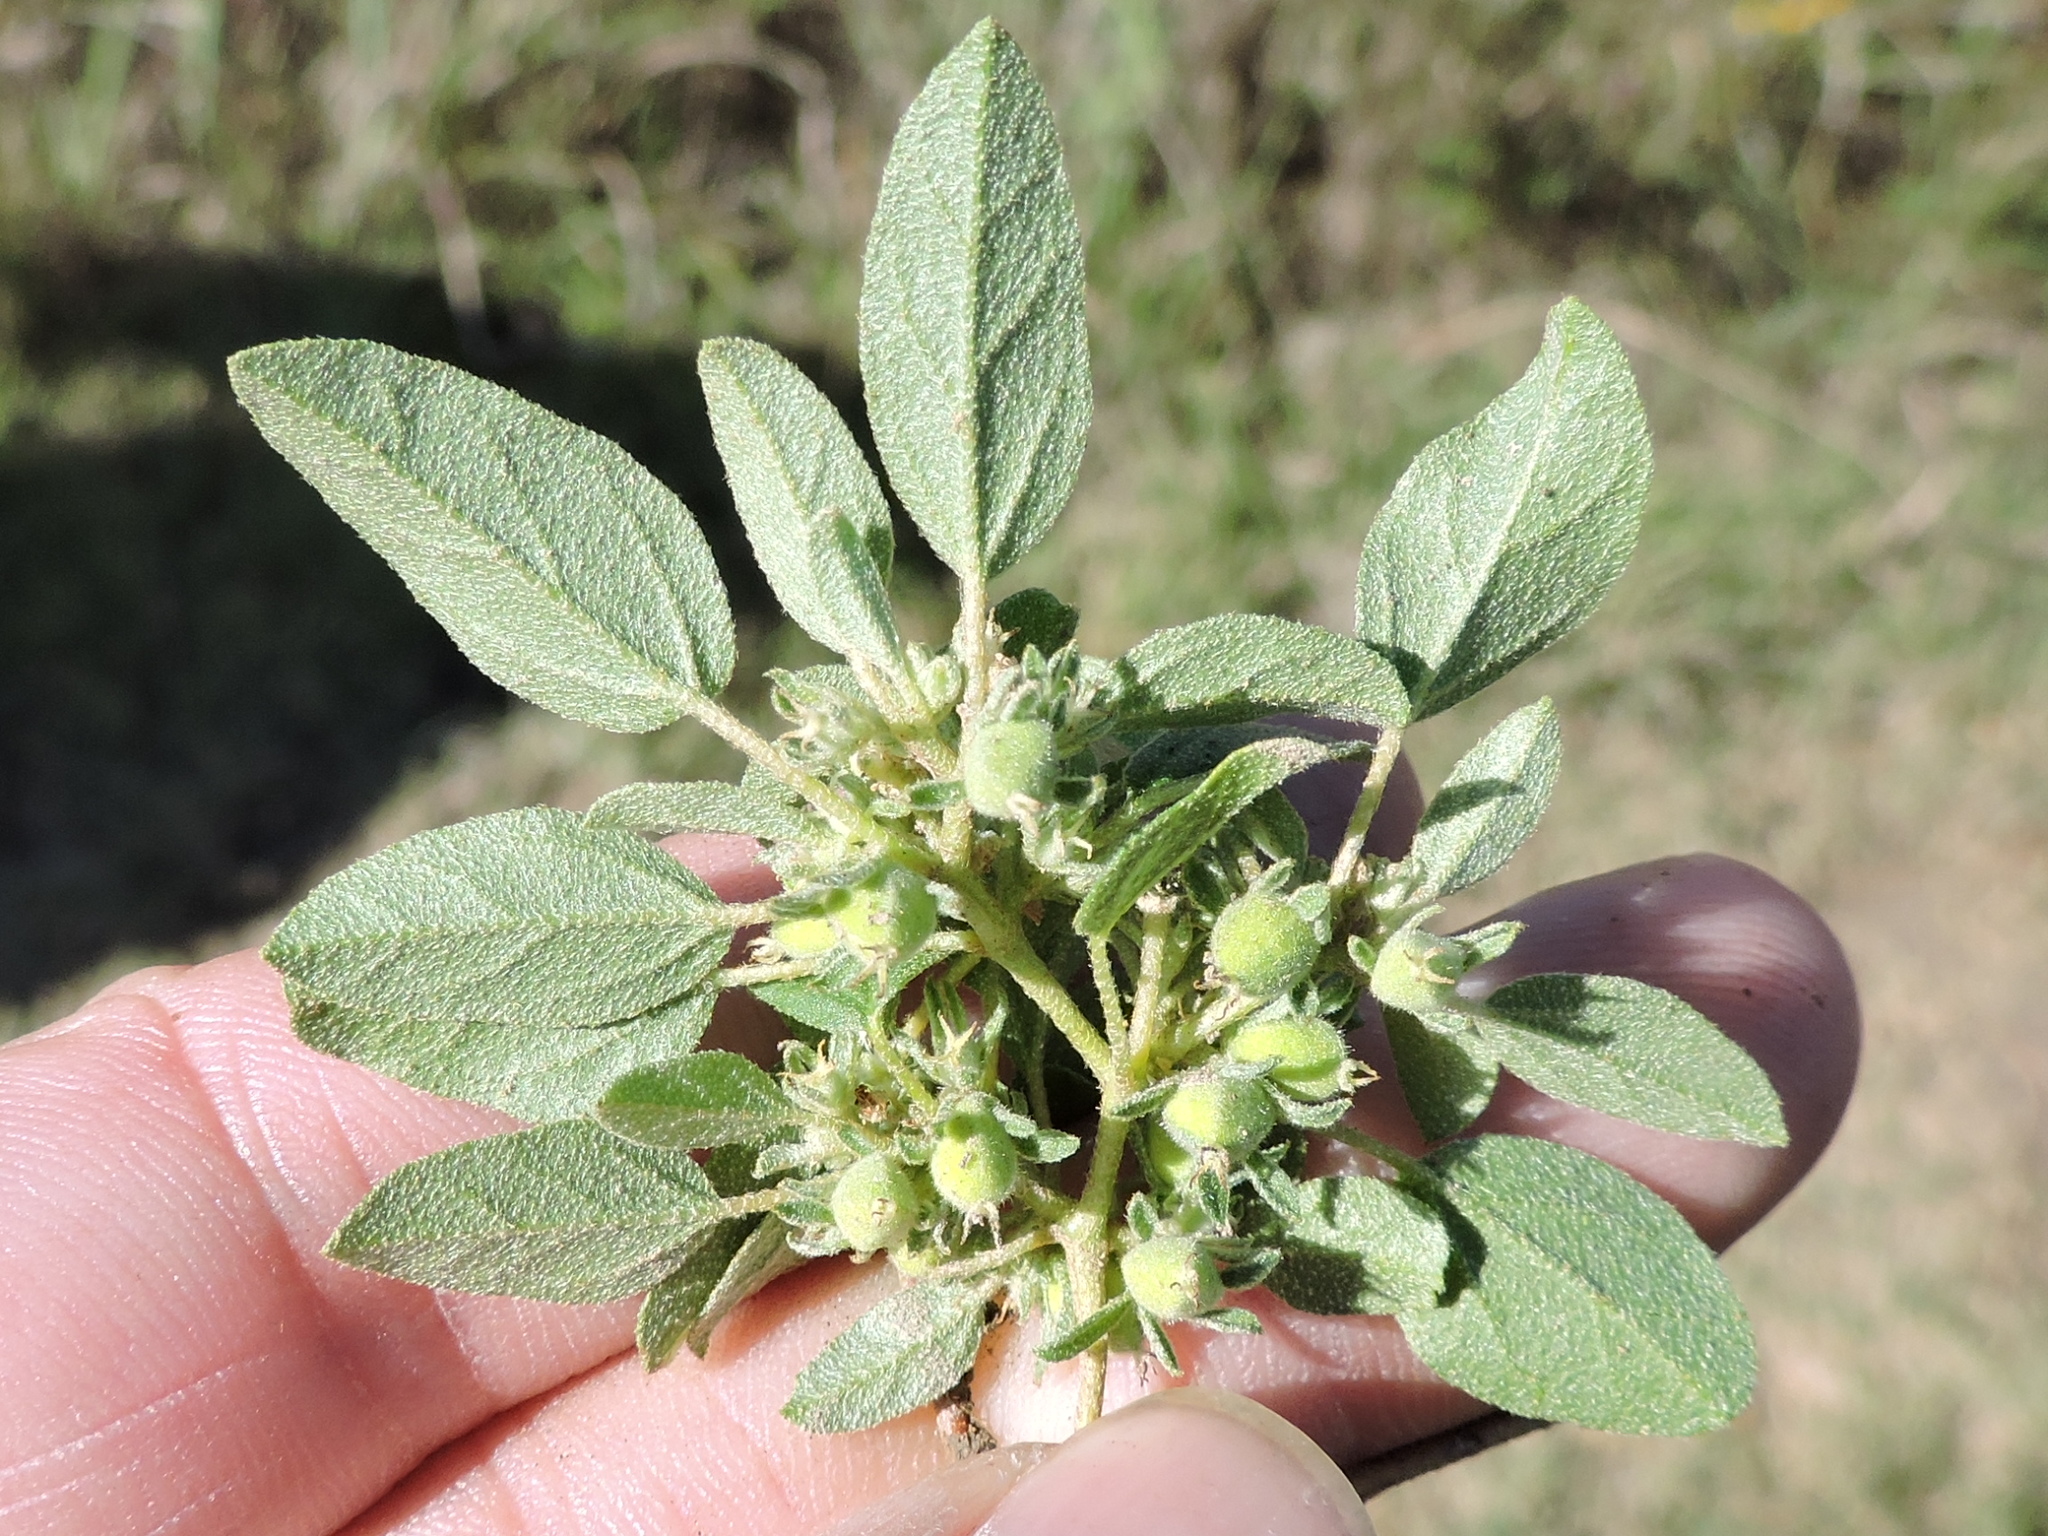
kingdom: Plantae
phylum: Tracheophyta
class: Magnoliopsida
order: Malpighiales
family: Euphorbiaceae
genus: Croton
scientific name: Croton monanthogynus
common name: One-seed croton
